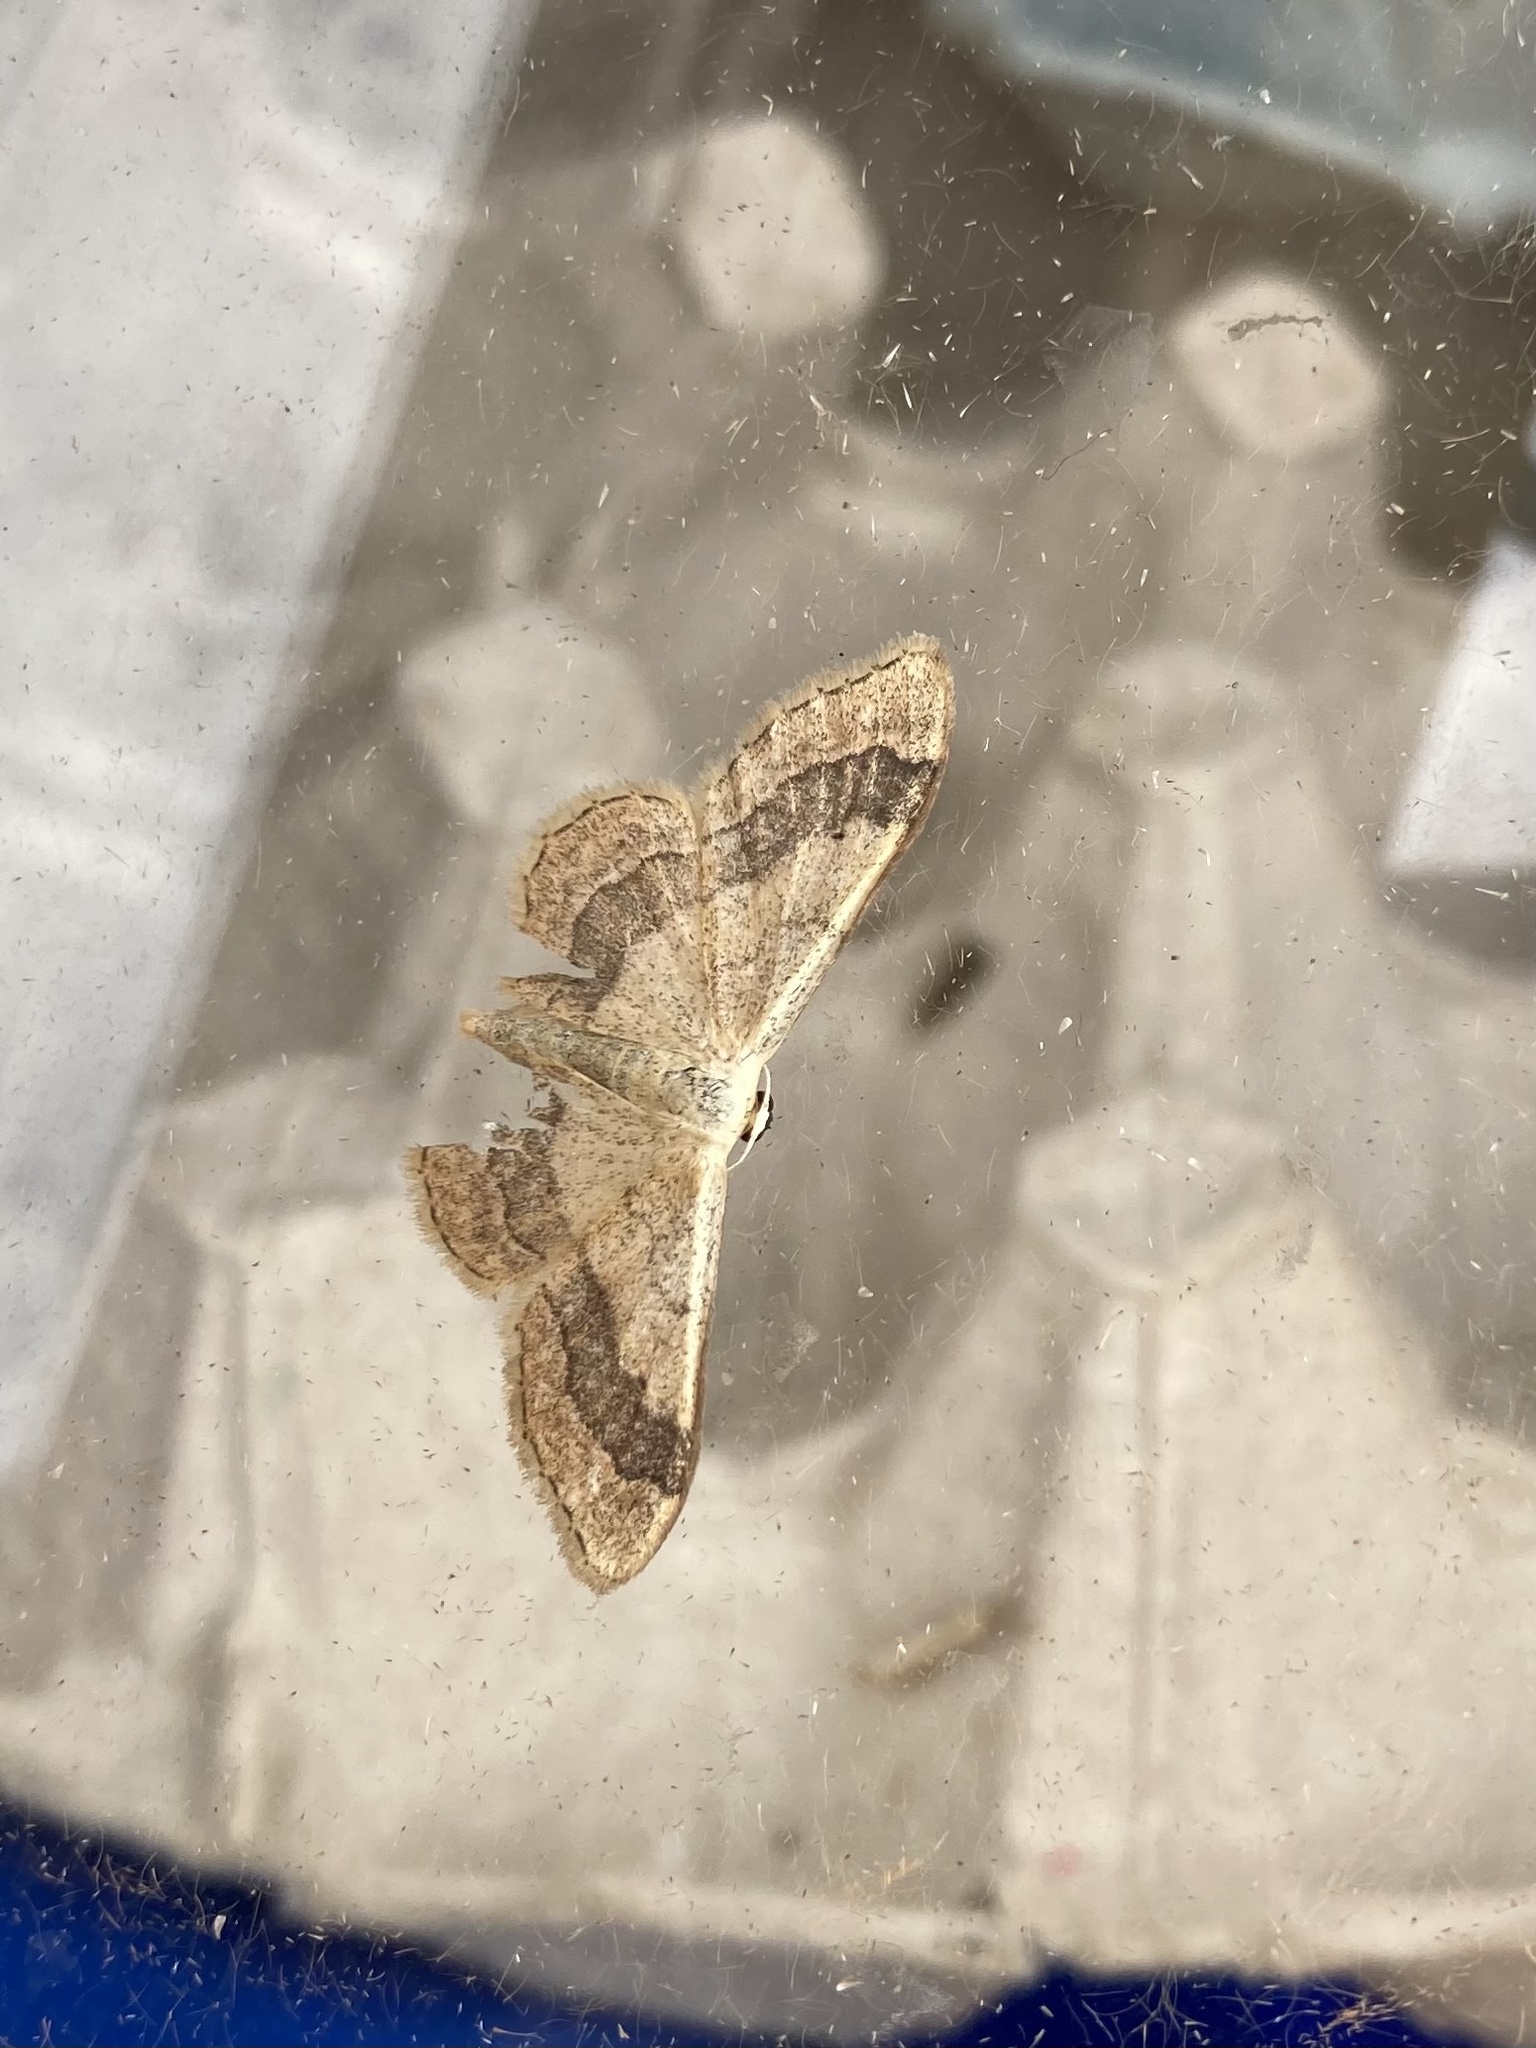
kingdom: Animalia
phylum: Arthropoda
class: Insecta
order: Lepidoptera
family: Geometridae
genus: Idaea
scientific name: Idaea aversata
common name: Riband wave
